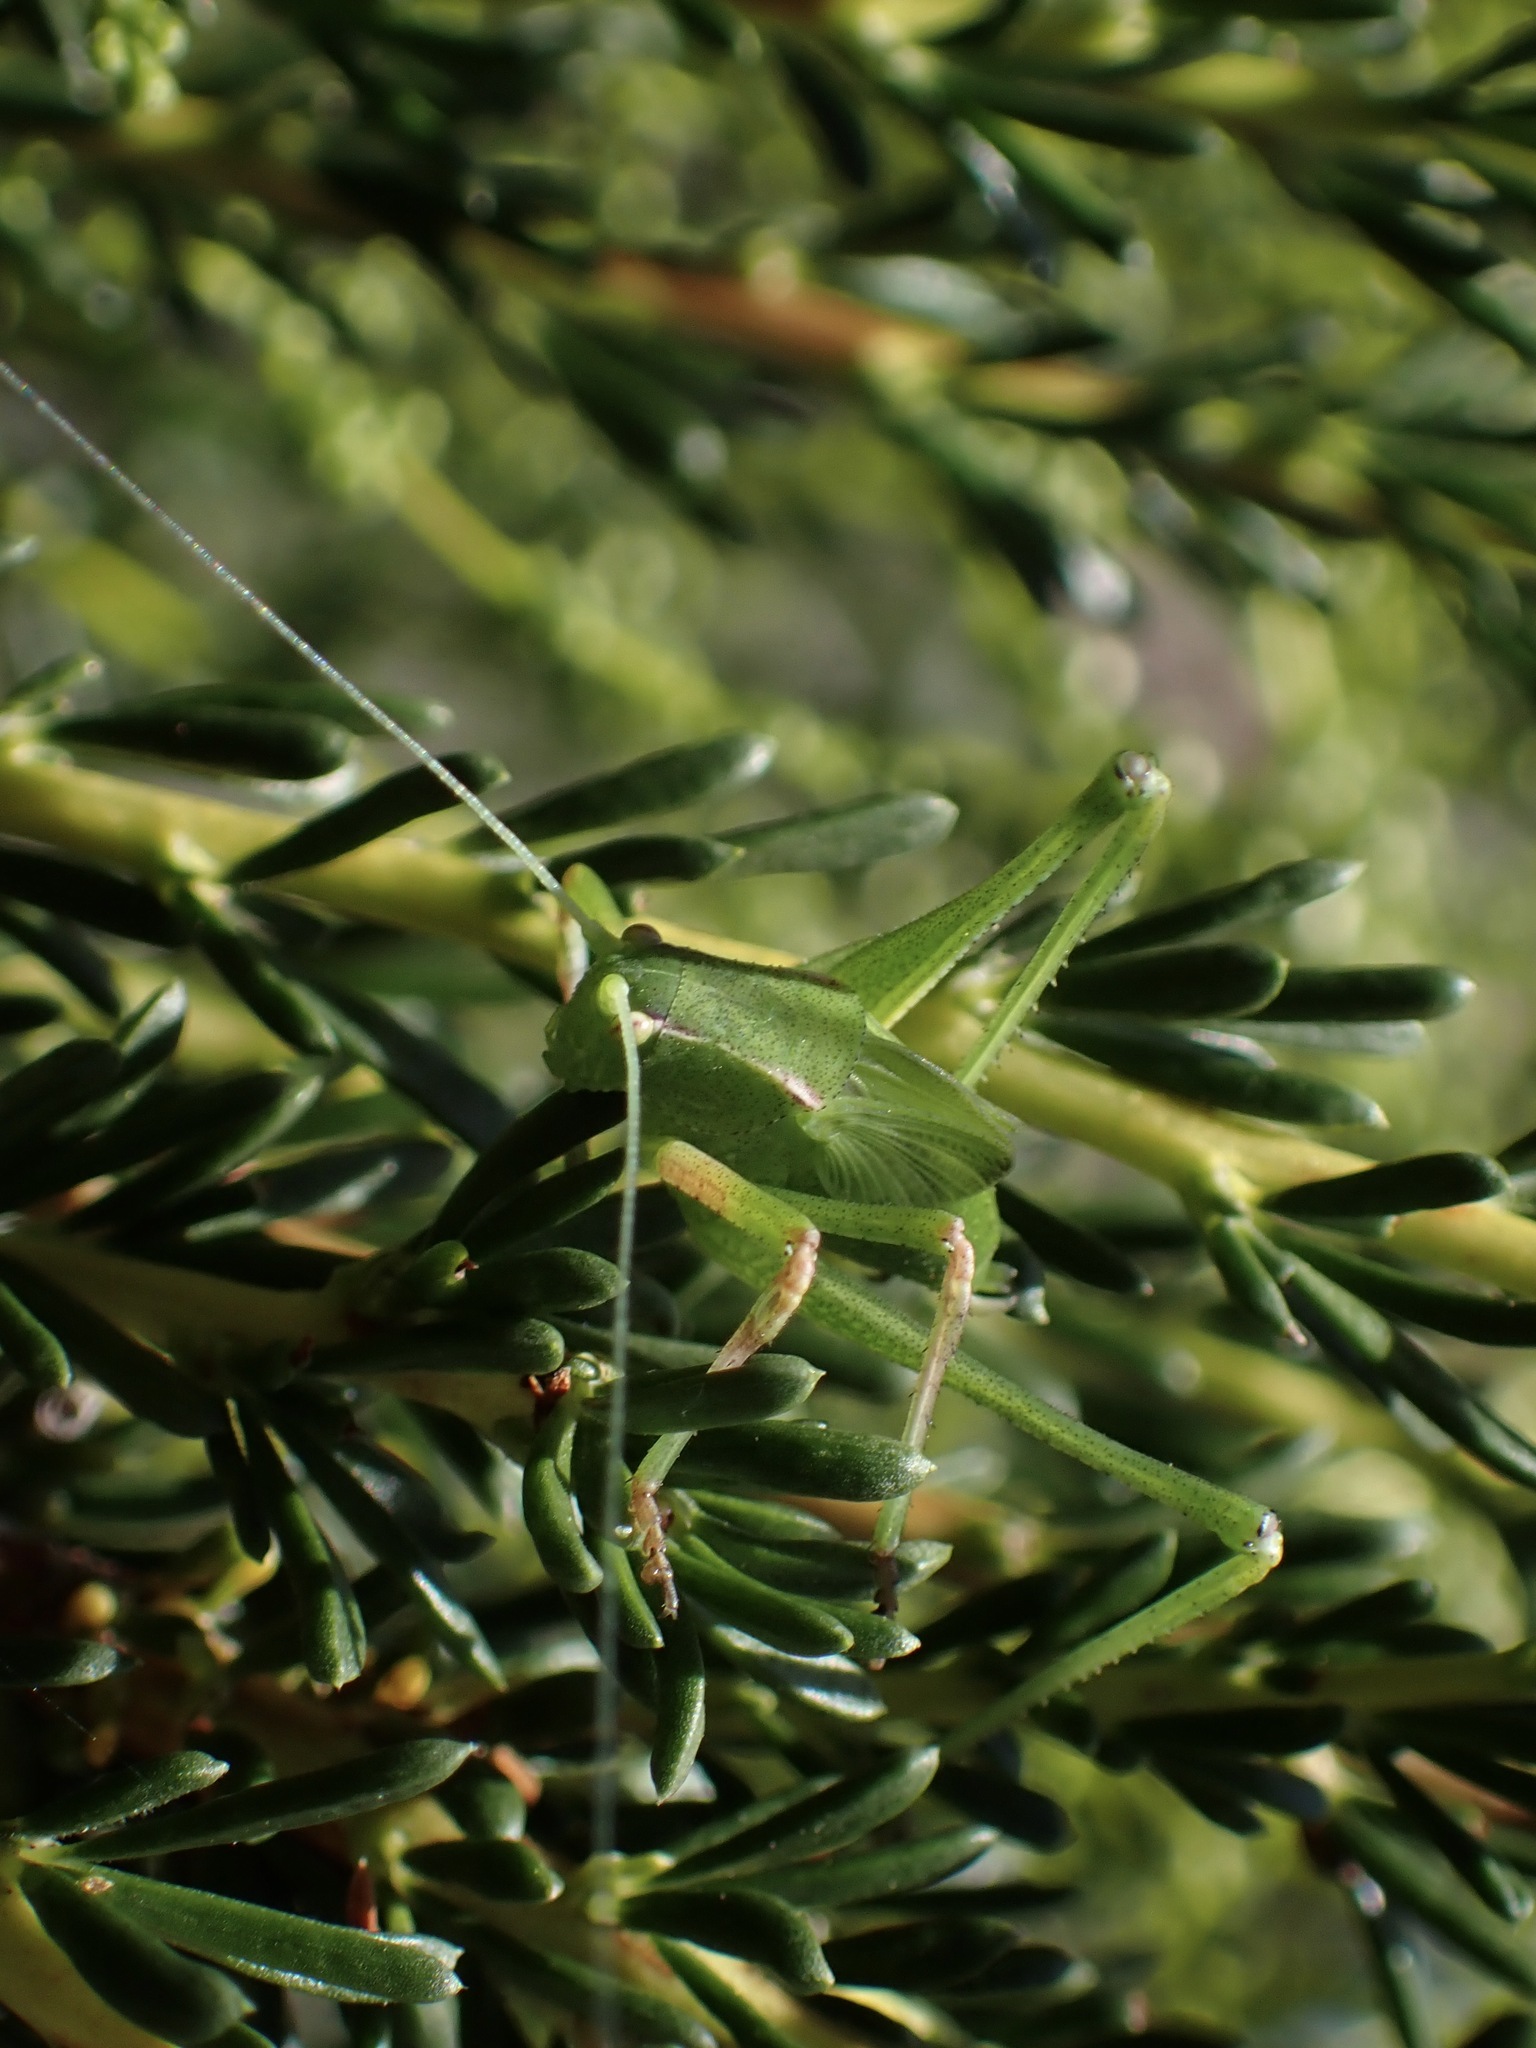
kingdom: Animalia
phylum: Arthropoda
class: Insecta
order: Orthoptera
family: Tettigoniidae
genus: Platylyra
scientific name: Platylyra californica
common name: Chaparral false katydid
